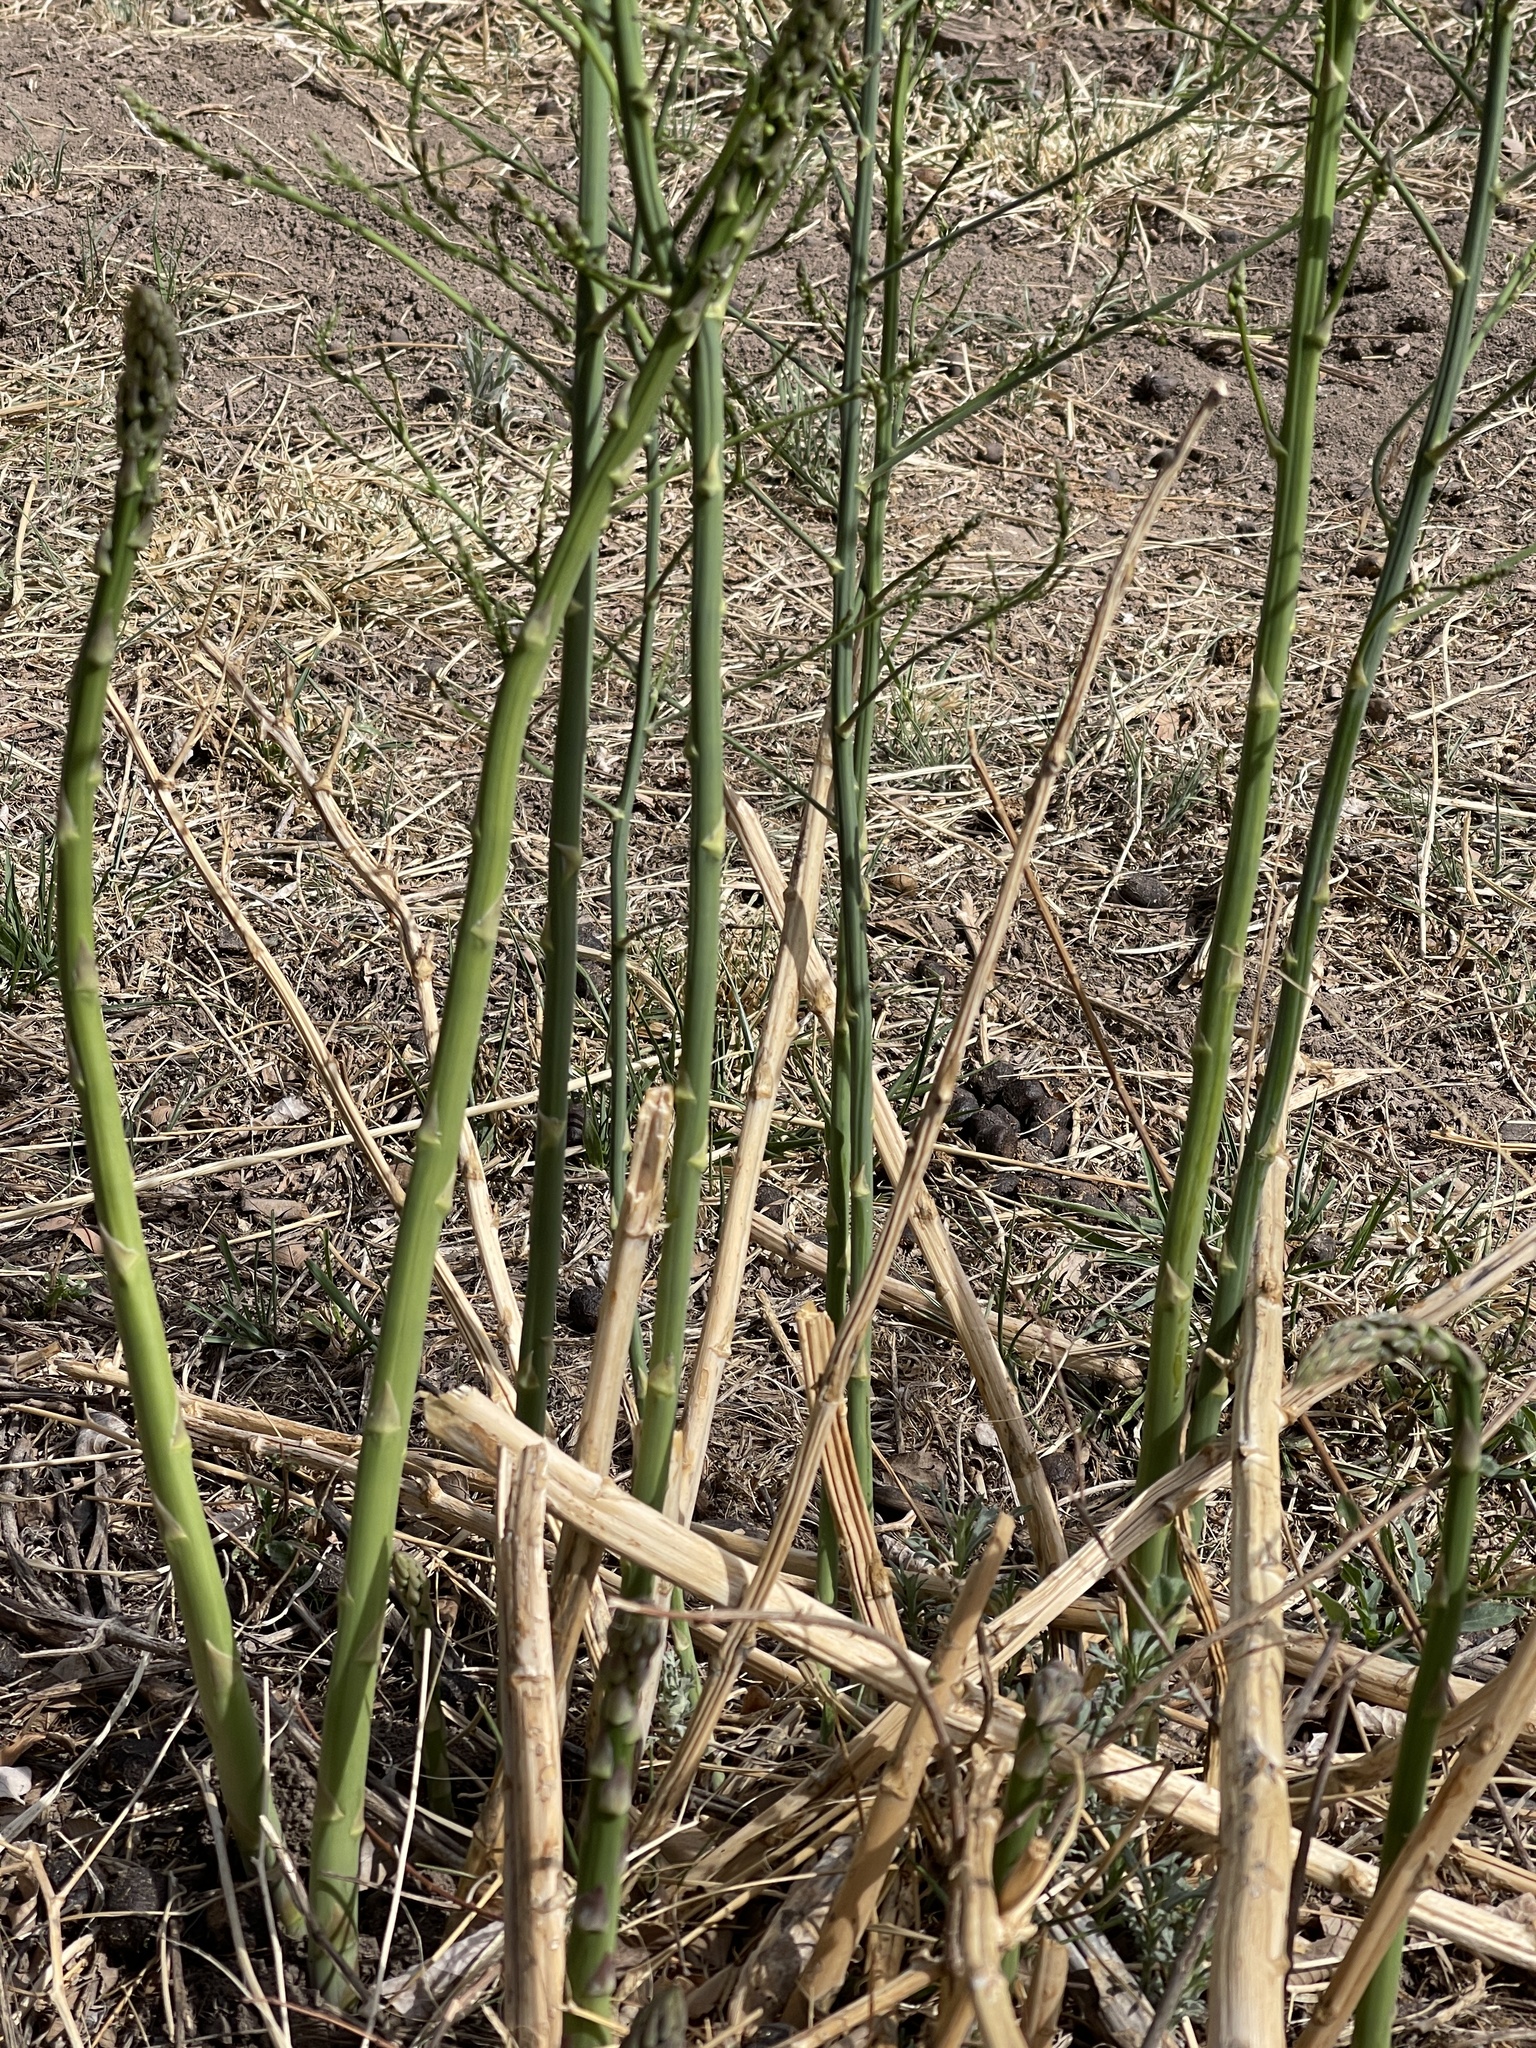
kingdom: Plantae
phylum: Tracheophyta
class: Liliopsida
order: Asparagales
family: Asparagaceae
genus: Asparagus
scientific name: Asparagus officinalis
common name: Garden asparagus
